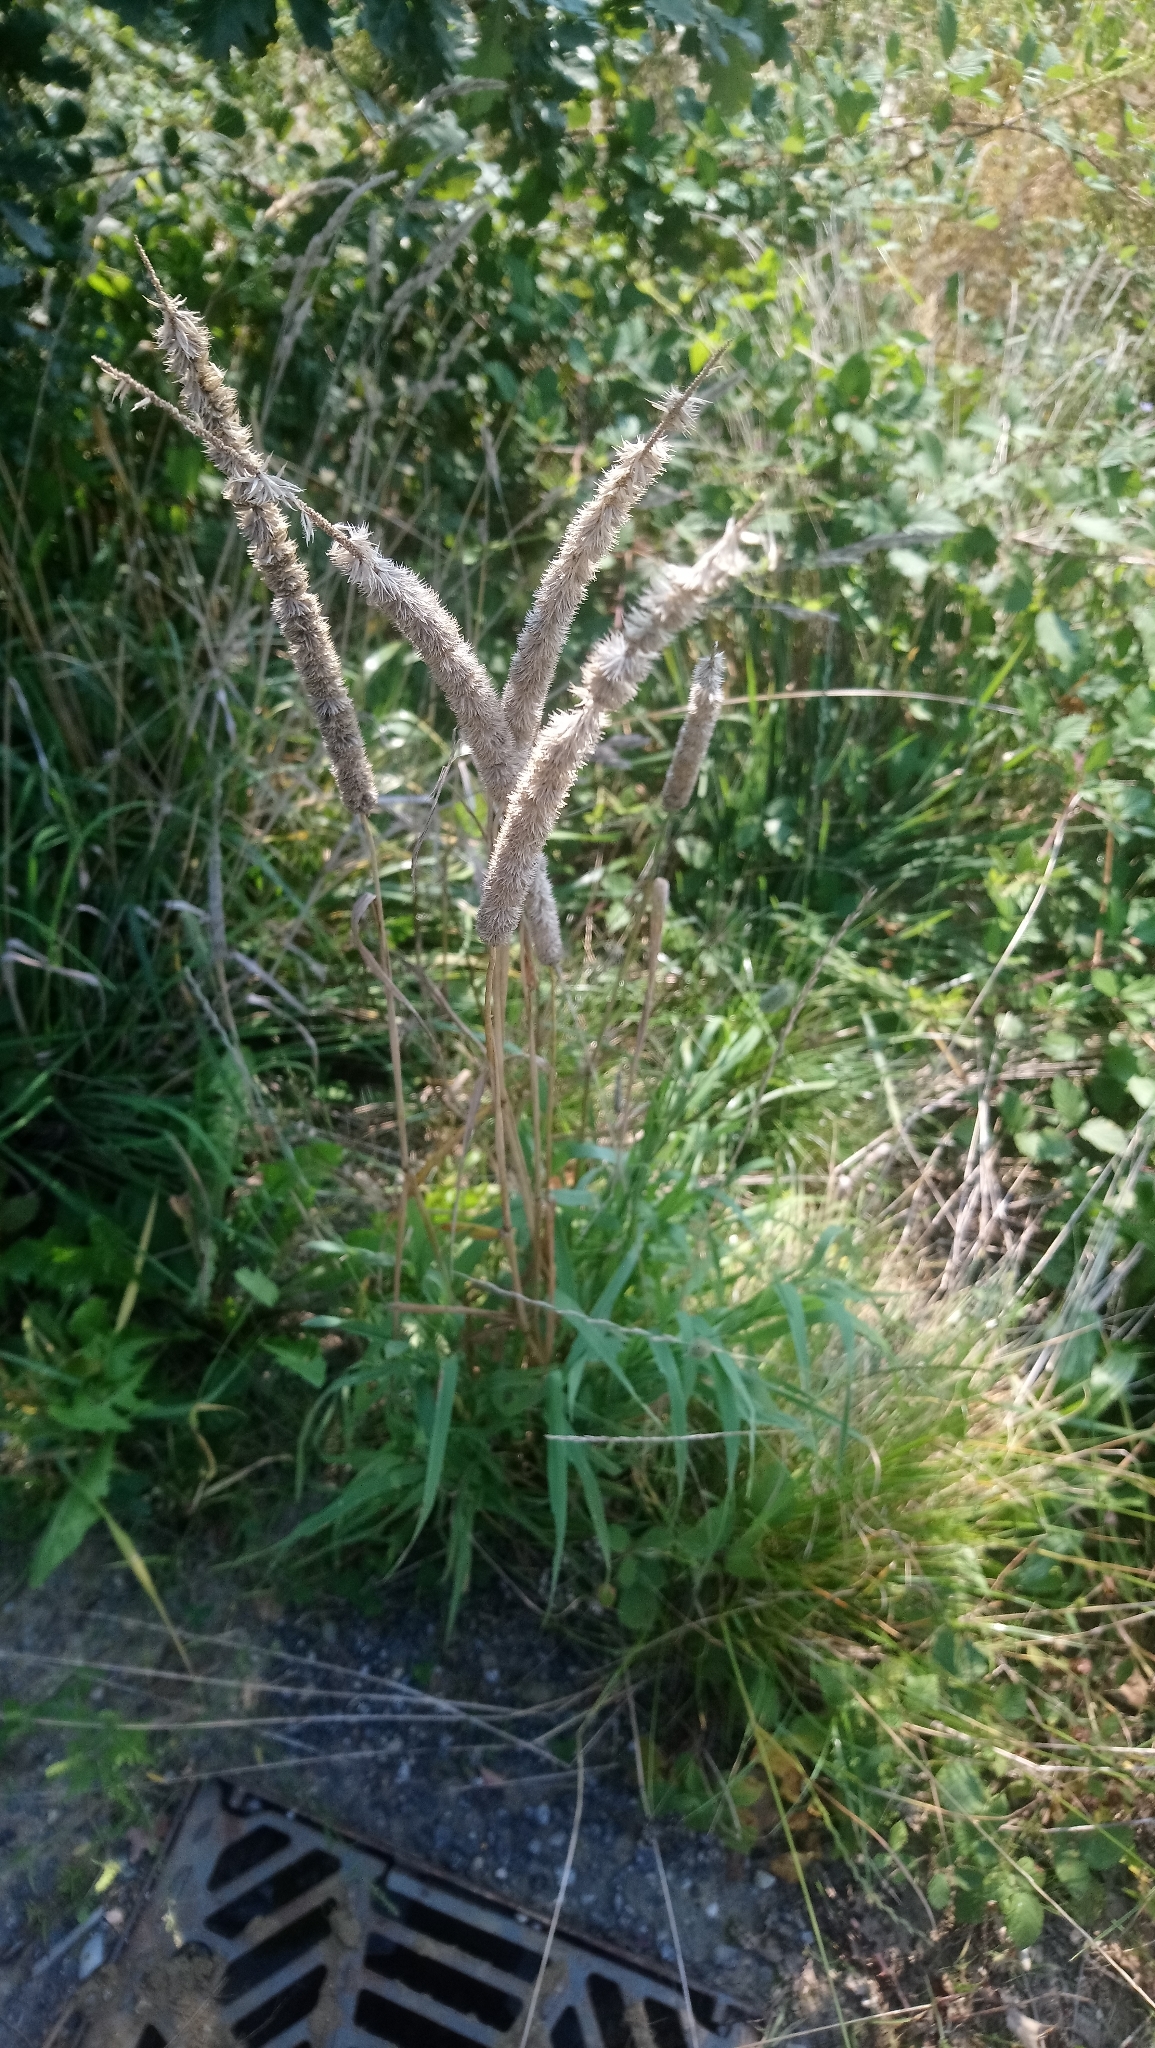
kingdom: Plantae
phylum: Tracheophyta
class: Liliopsida
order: Poales
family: Poaceae
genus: Phleum
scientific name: Phleum pratense
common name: Timothy grass
